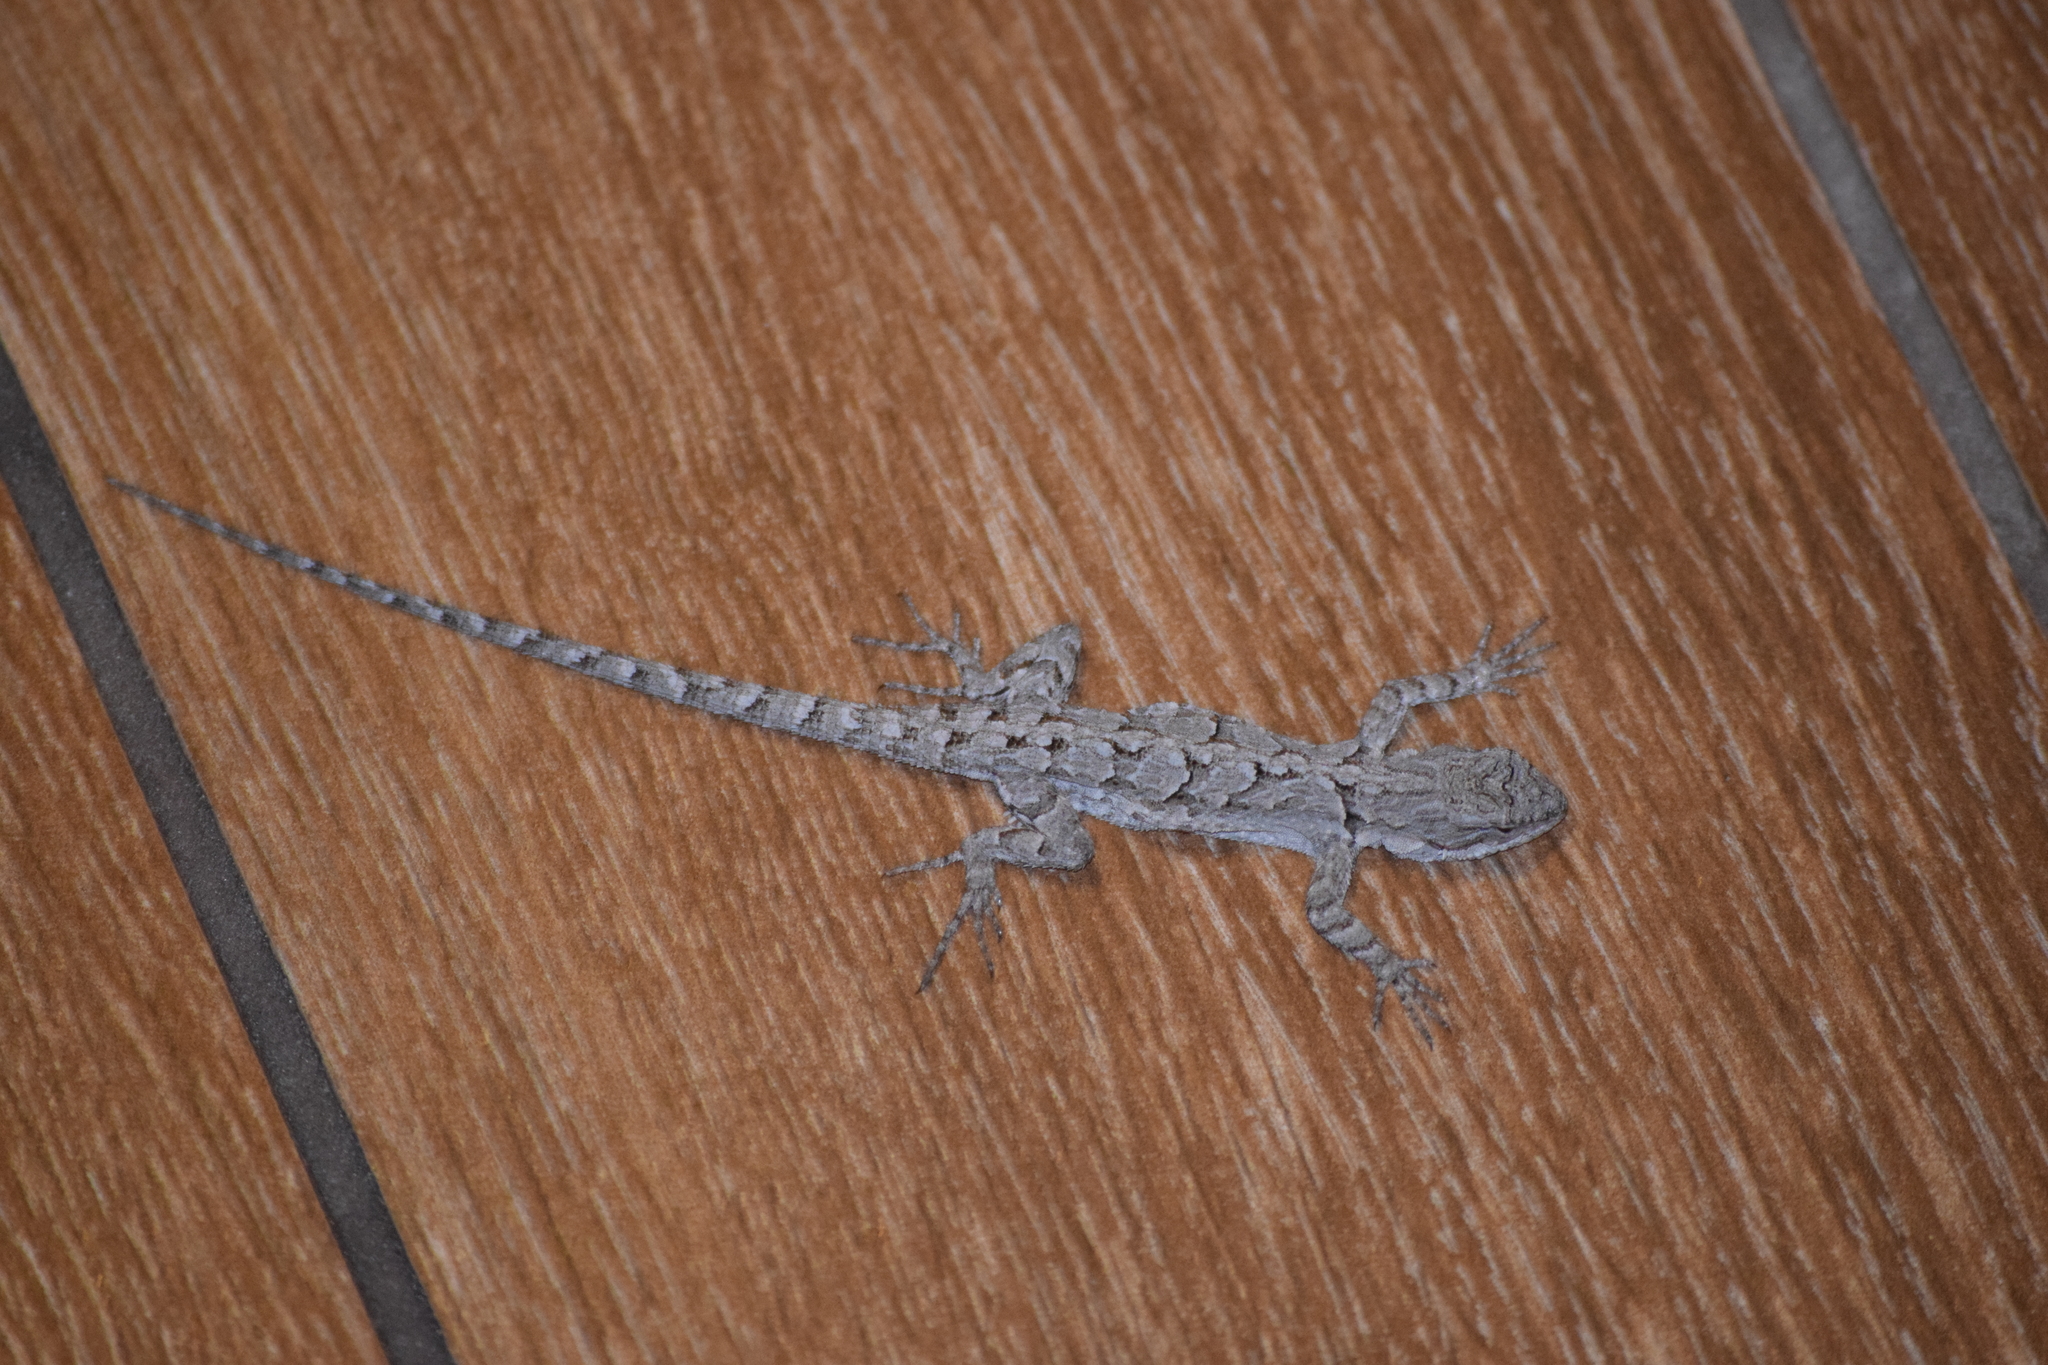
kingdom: Animalia
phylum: Chordata
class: Squamata
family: Phrynosomatidae
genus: Urosaurus
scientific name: Urosaurus ornatus
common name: Ornate tree lizard
